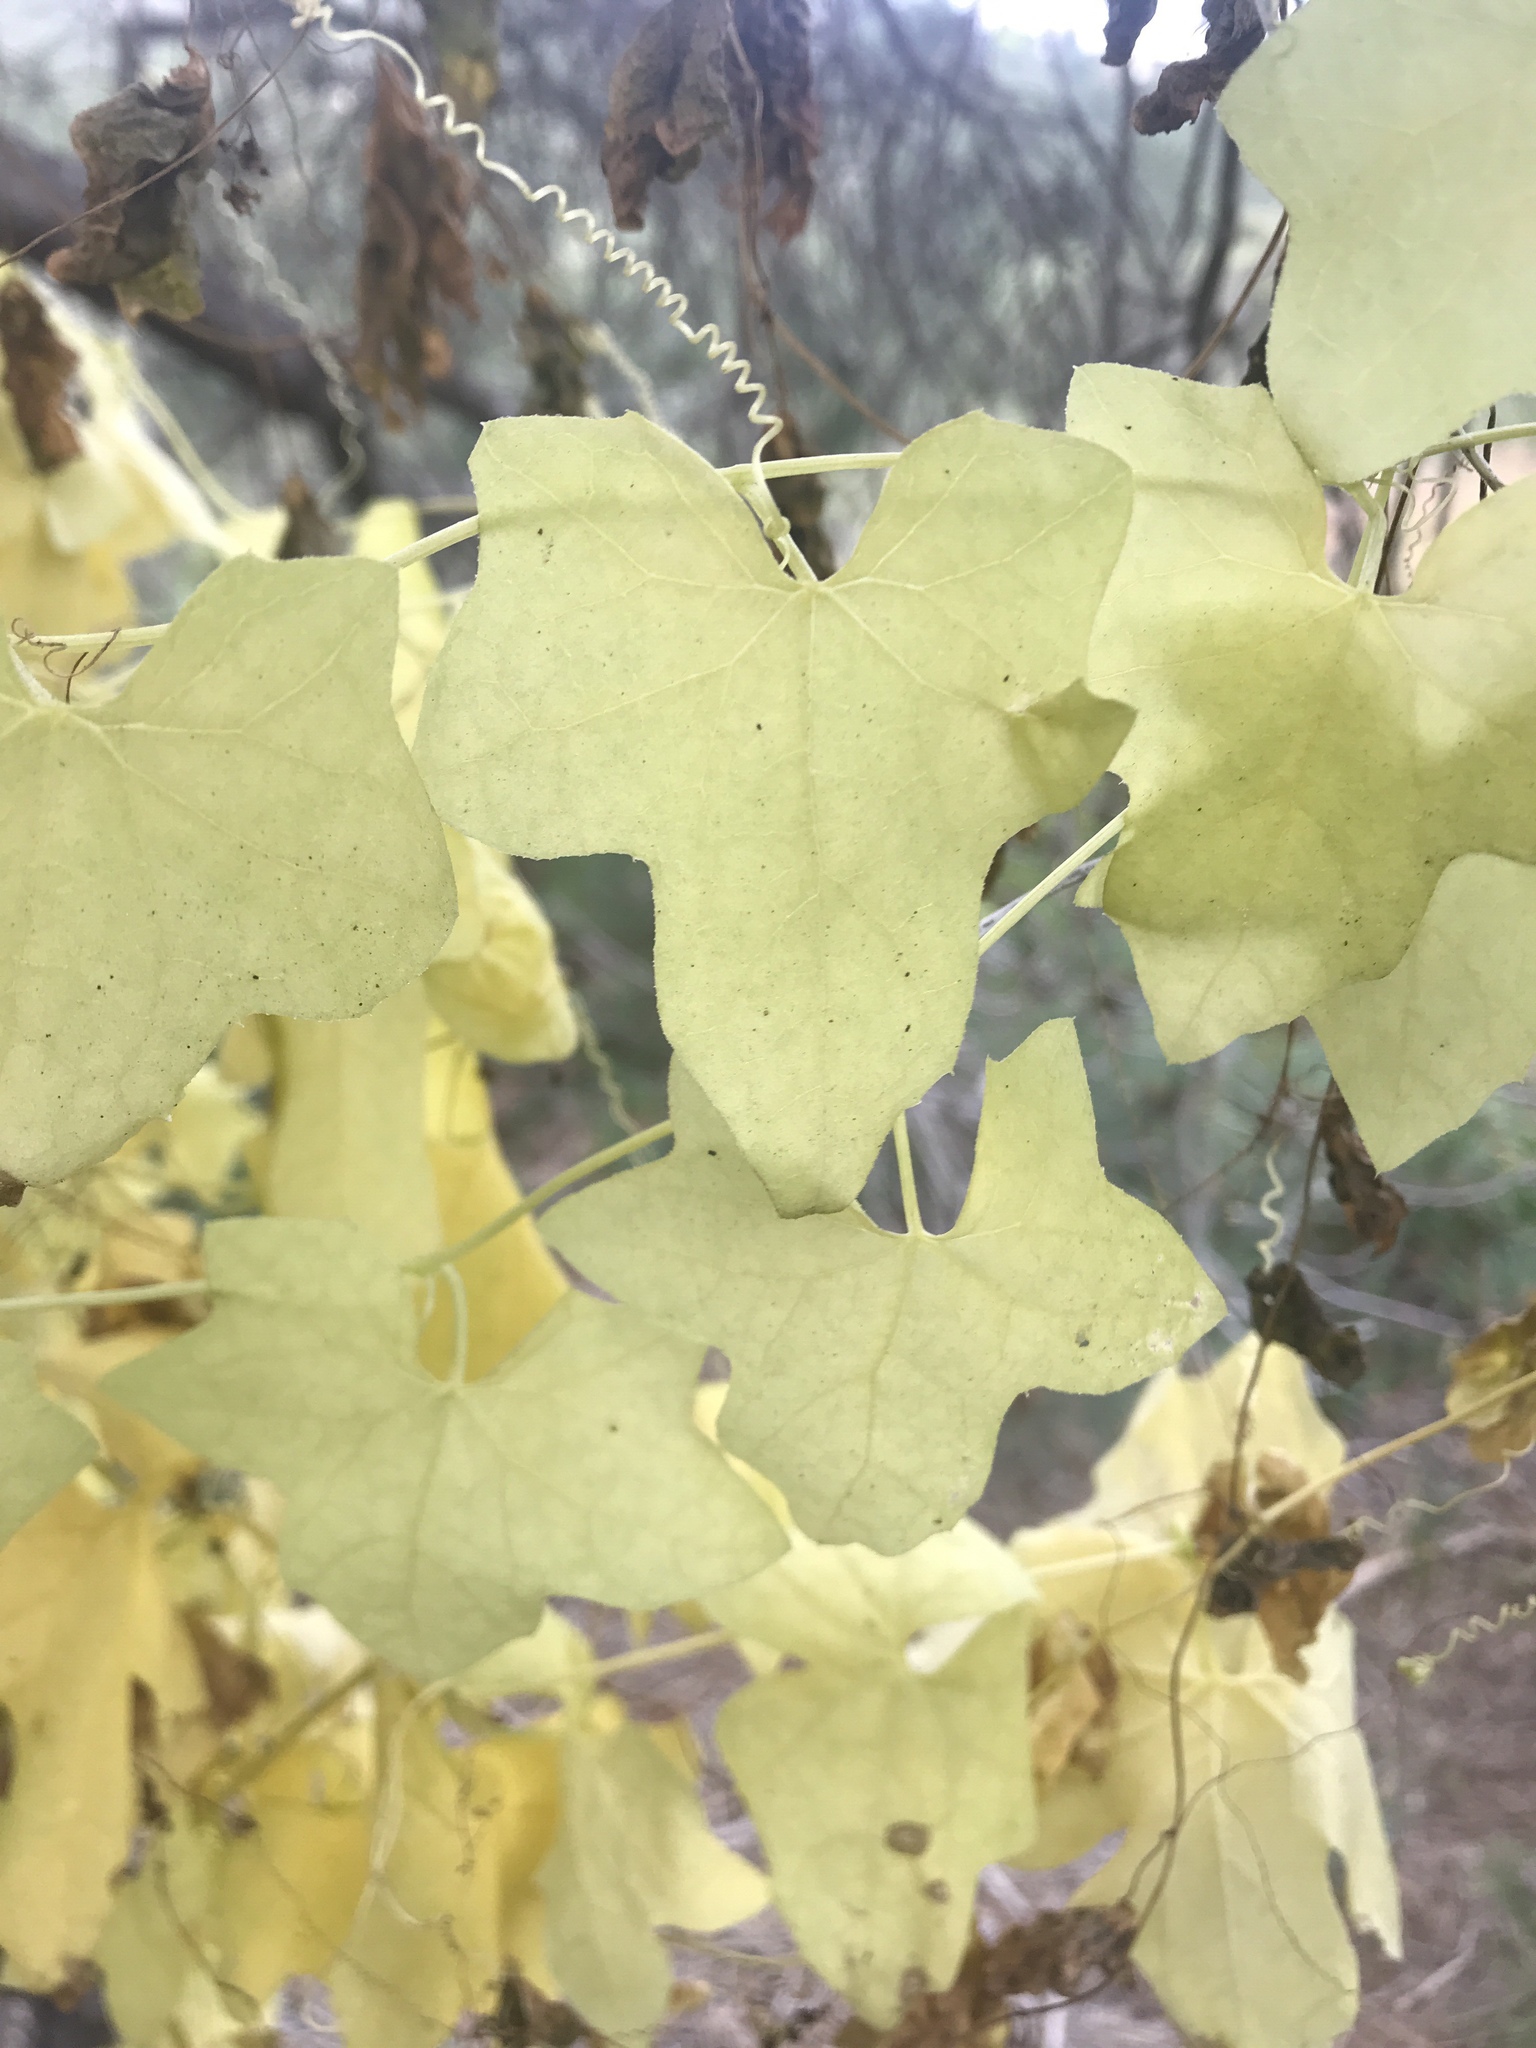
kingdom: Plantae
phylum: Tracheophyta
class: Magnoliopsida
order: Cucurbitales
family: Cucurbitaceae
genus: Marah
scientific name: Marah macrocarpa
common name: Cucamonga manroot
